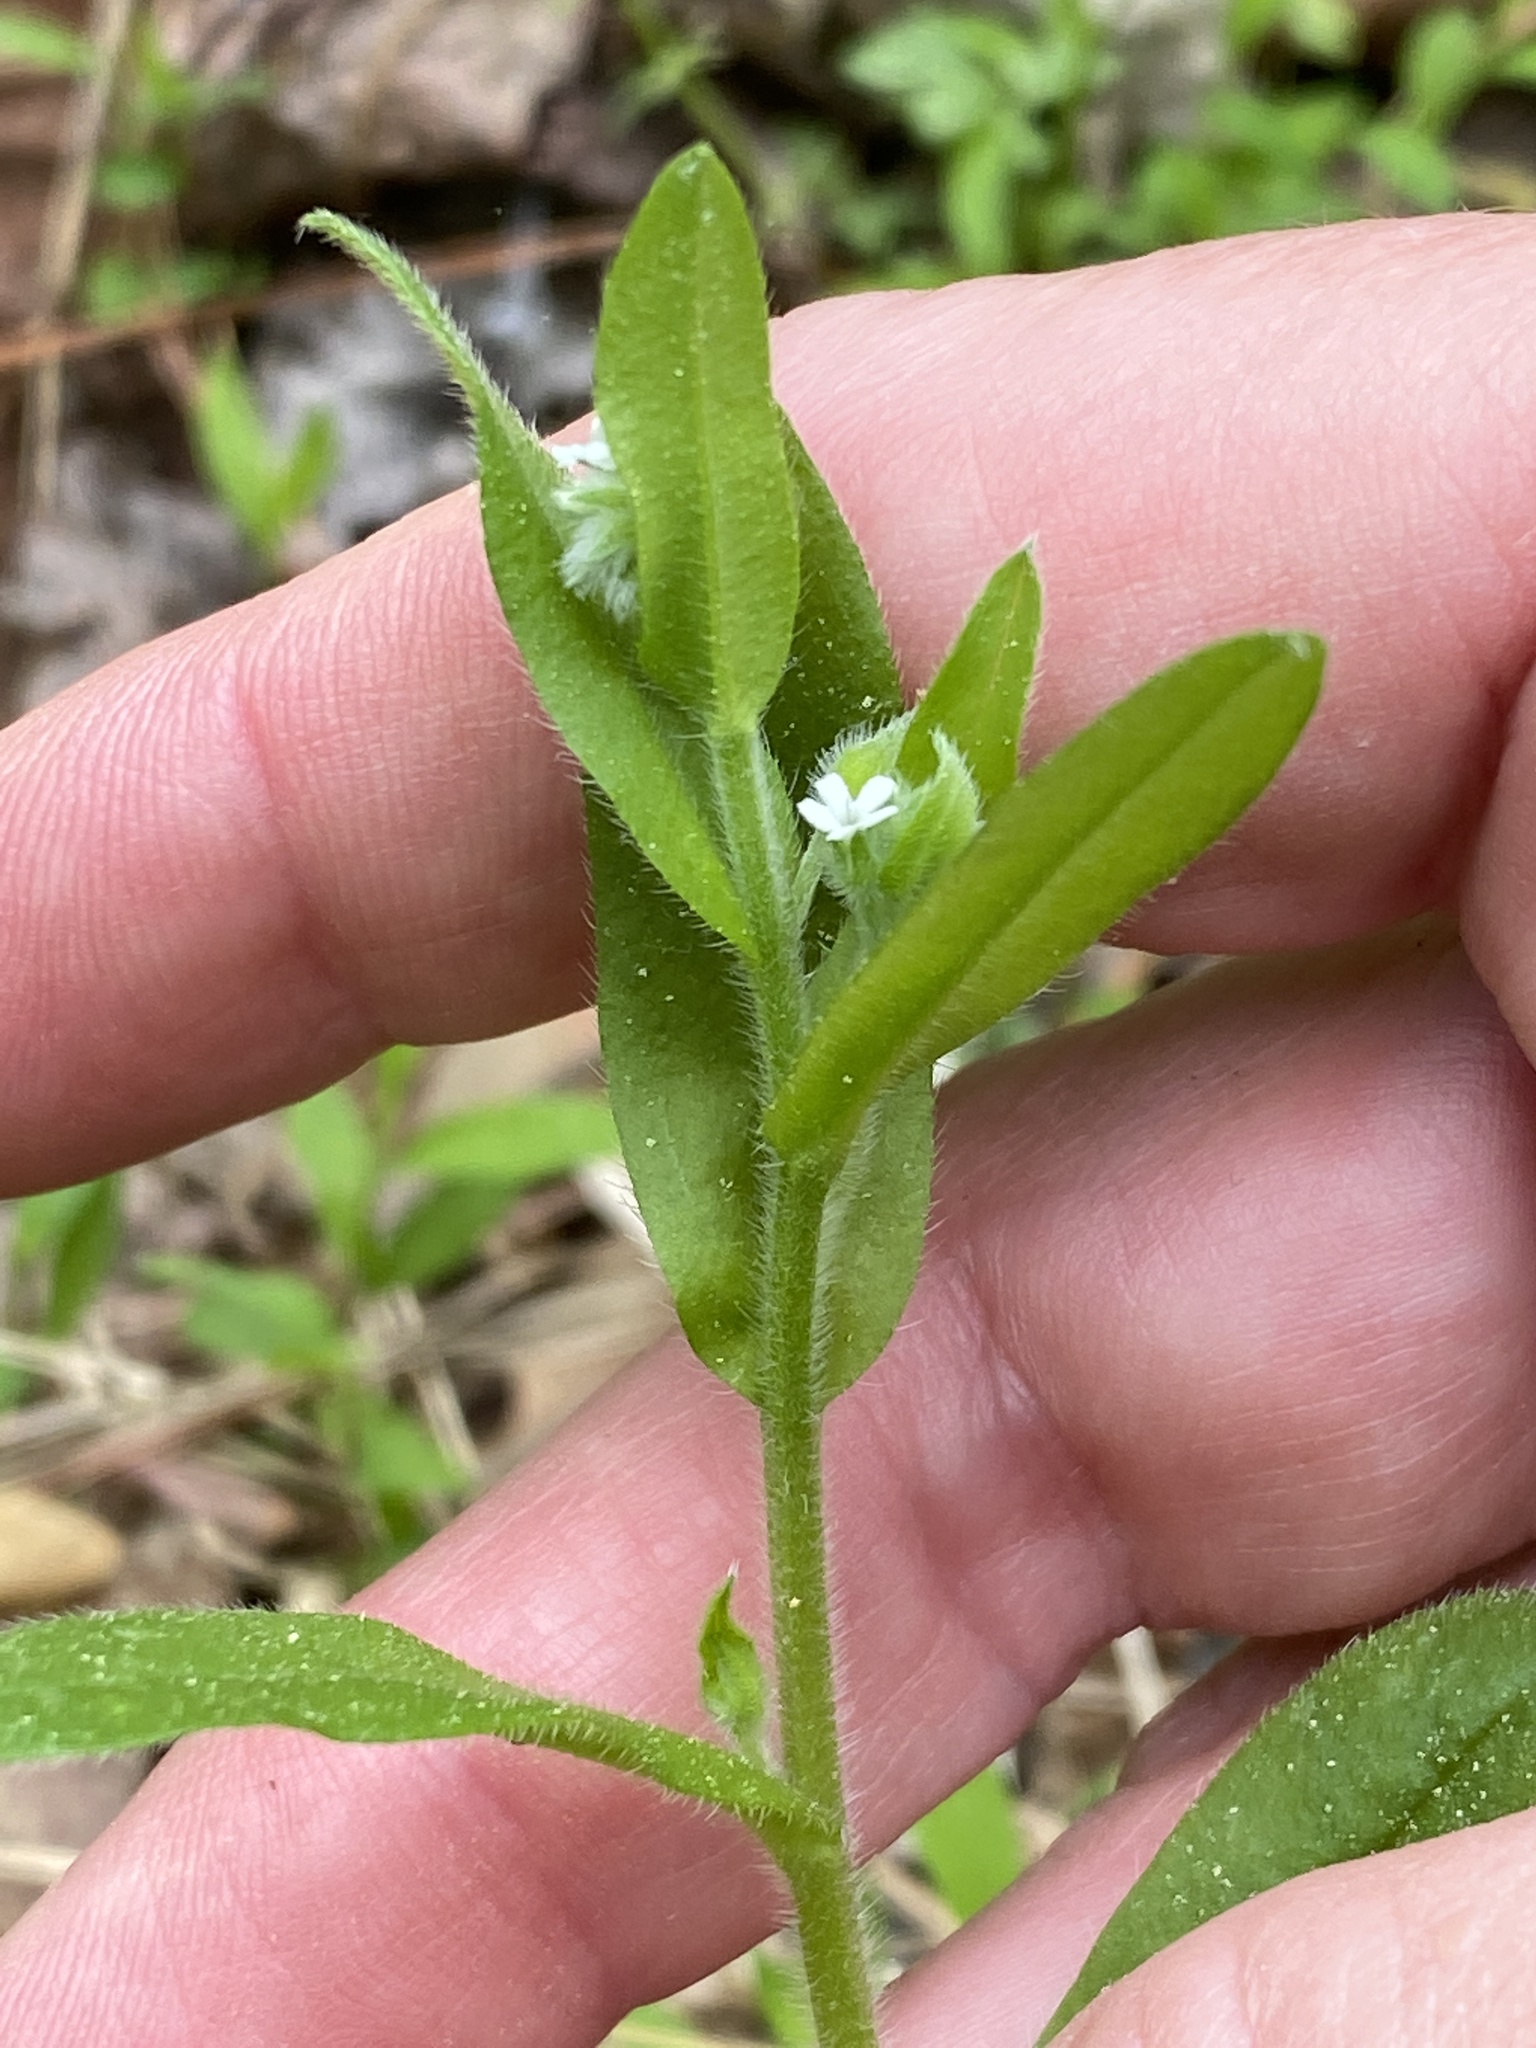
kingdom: Plantae
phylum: Tracheophyta
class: Magnoliopsida
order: Boraginales
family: Boraginaceae
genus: Myosotis
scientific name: Myosotis macrosperma
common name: Large-seed forget-me-not
